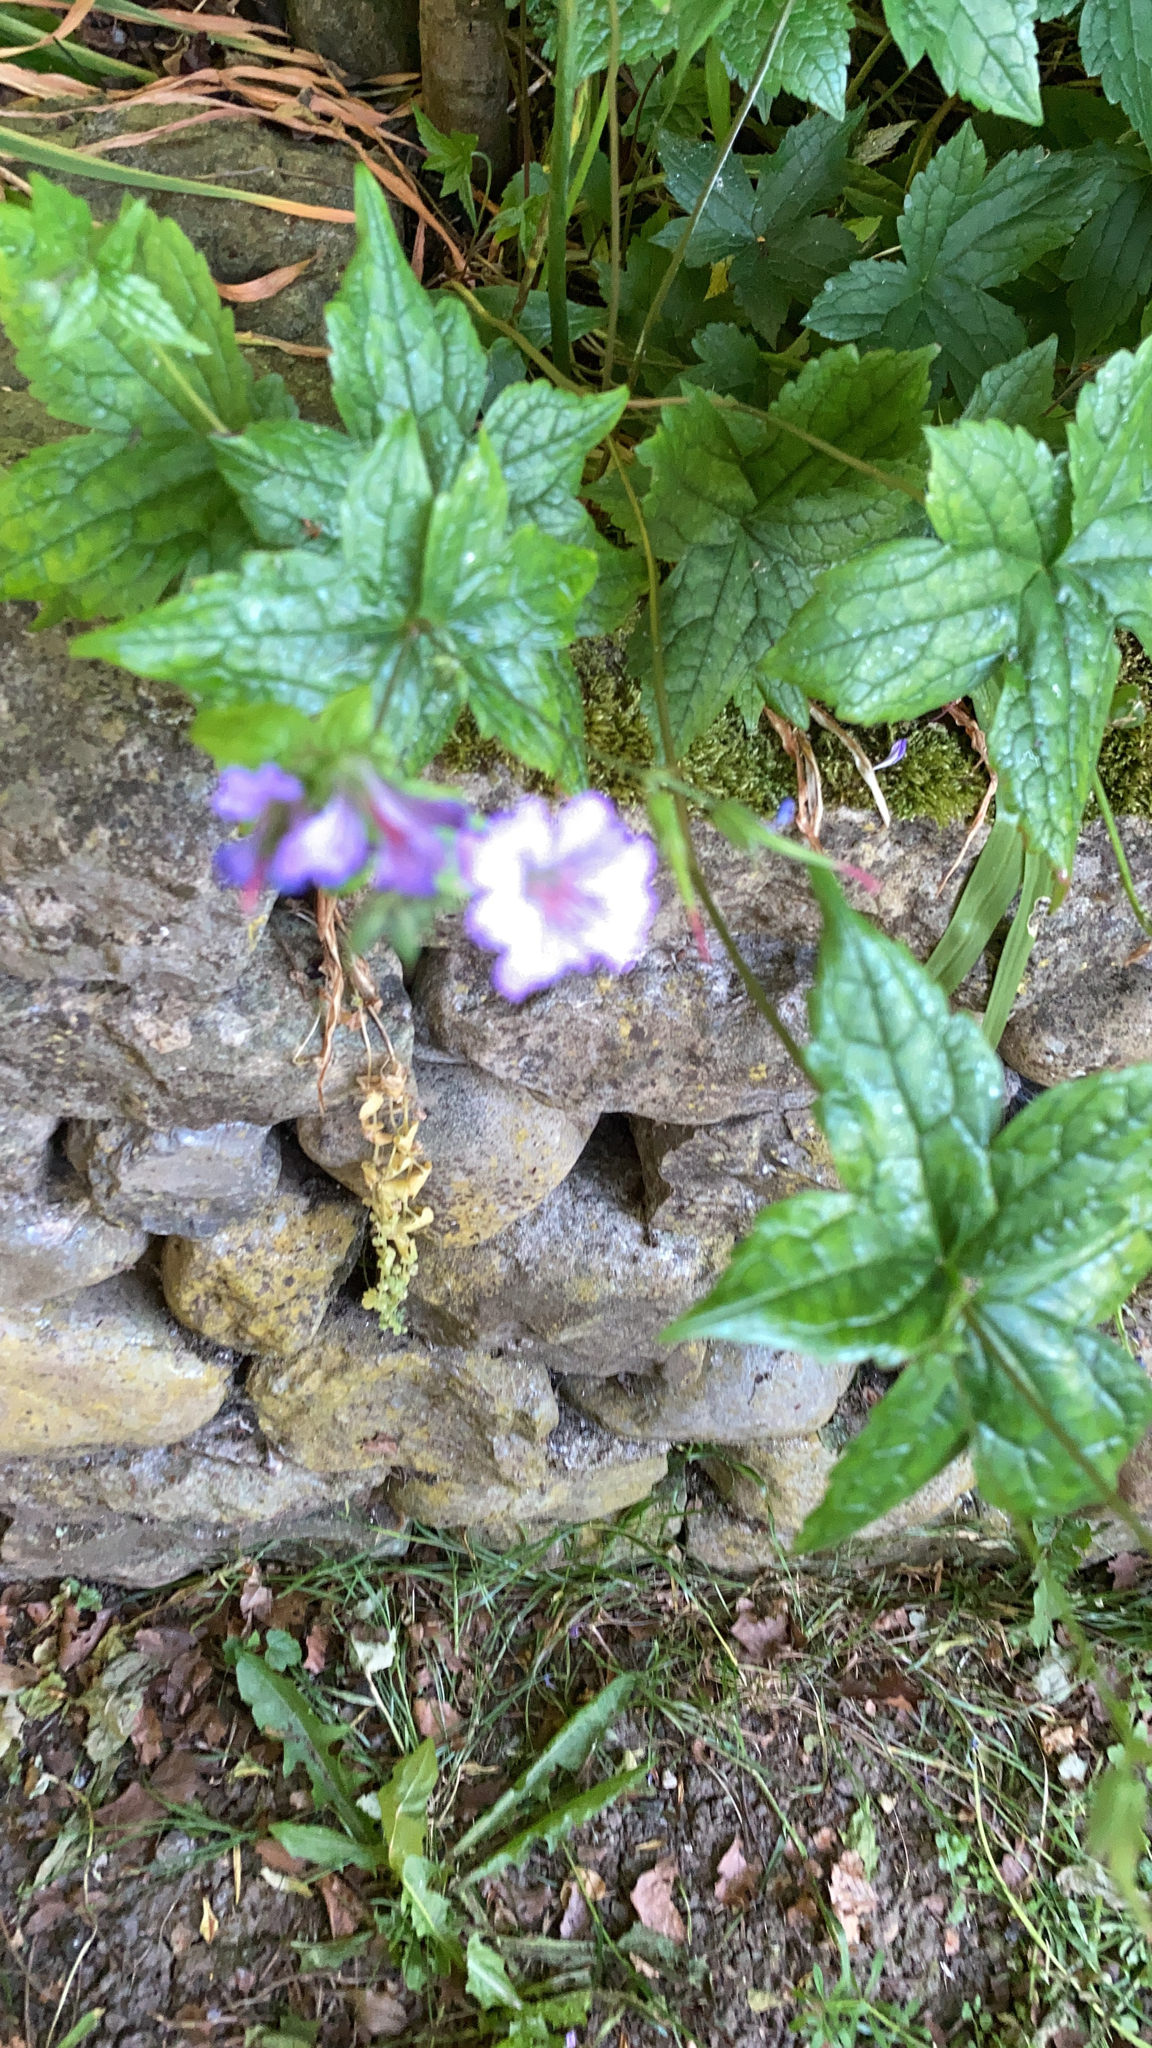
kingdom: Plantae
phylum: Tracheophyta
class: Magnoliopsida
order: Geraniales
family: Geraniaceae
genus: Geranium
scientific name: Geranium nodosum
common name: Knotted crane's-bill
